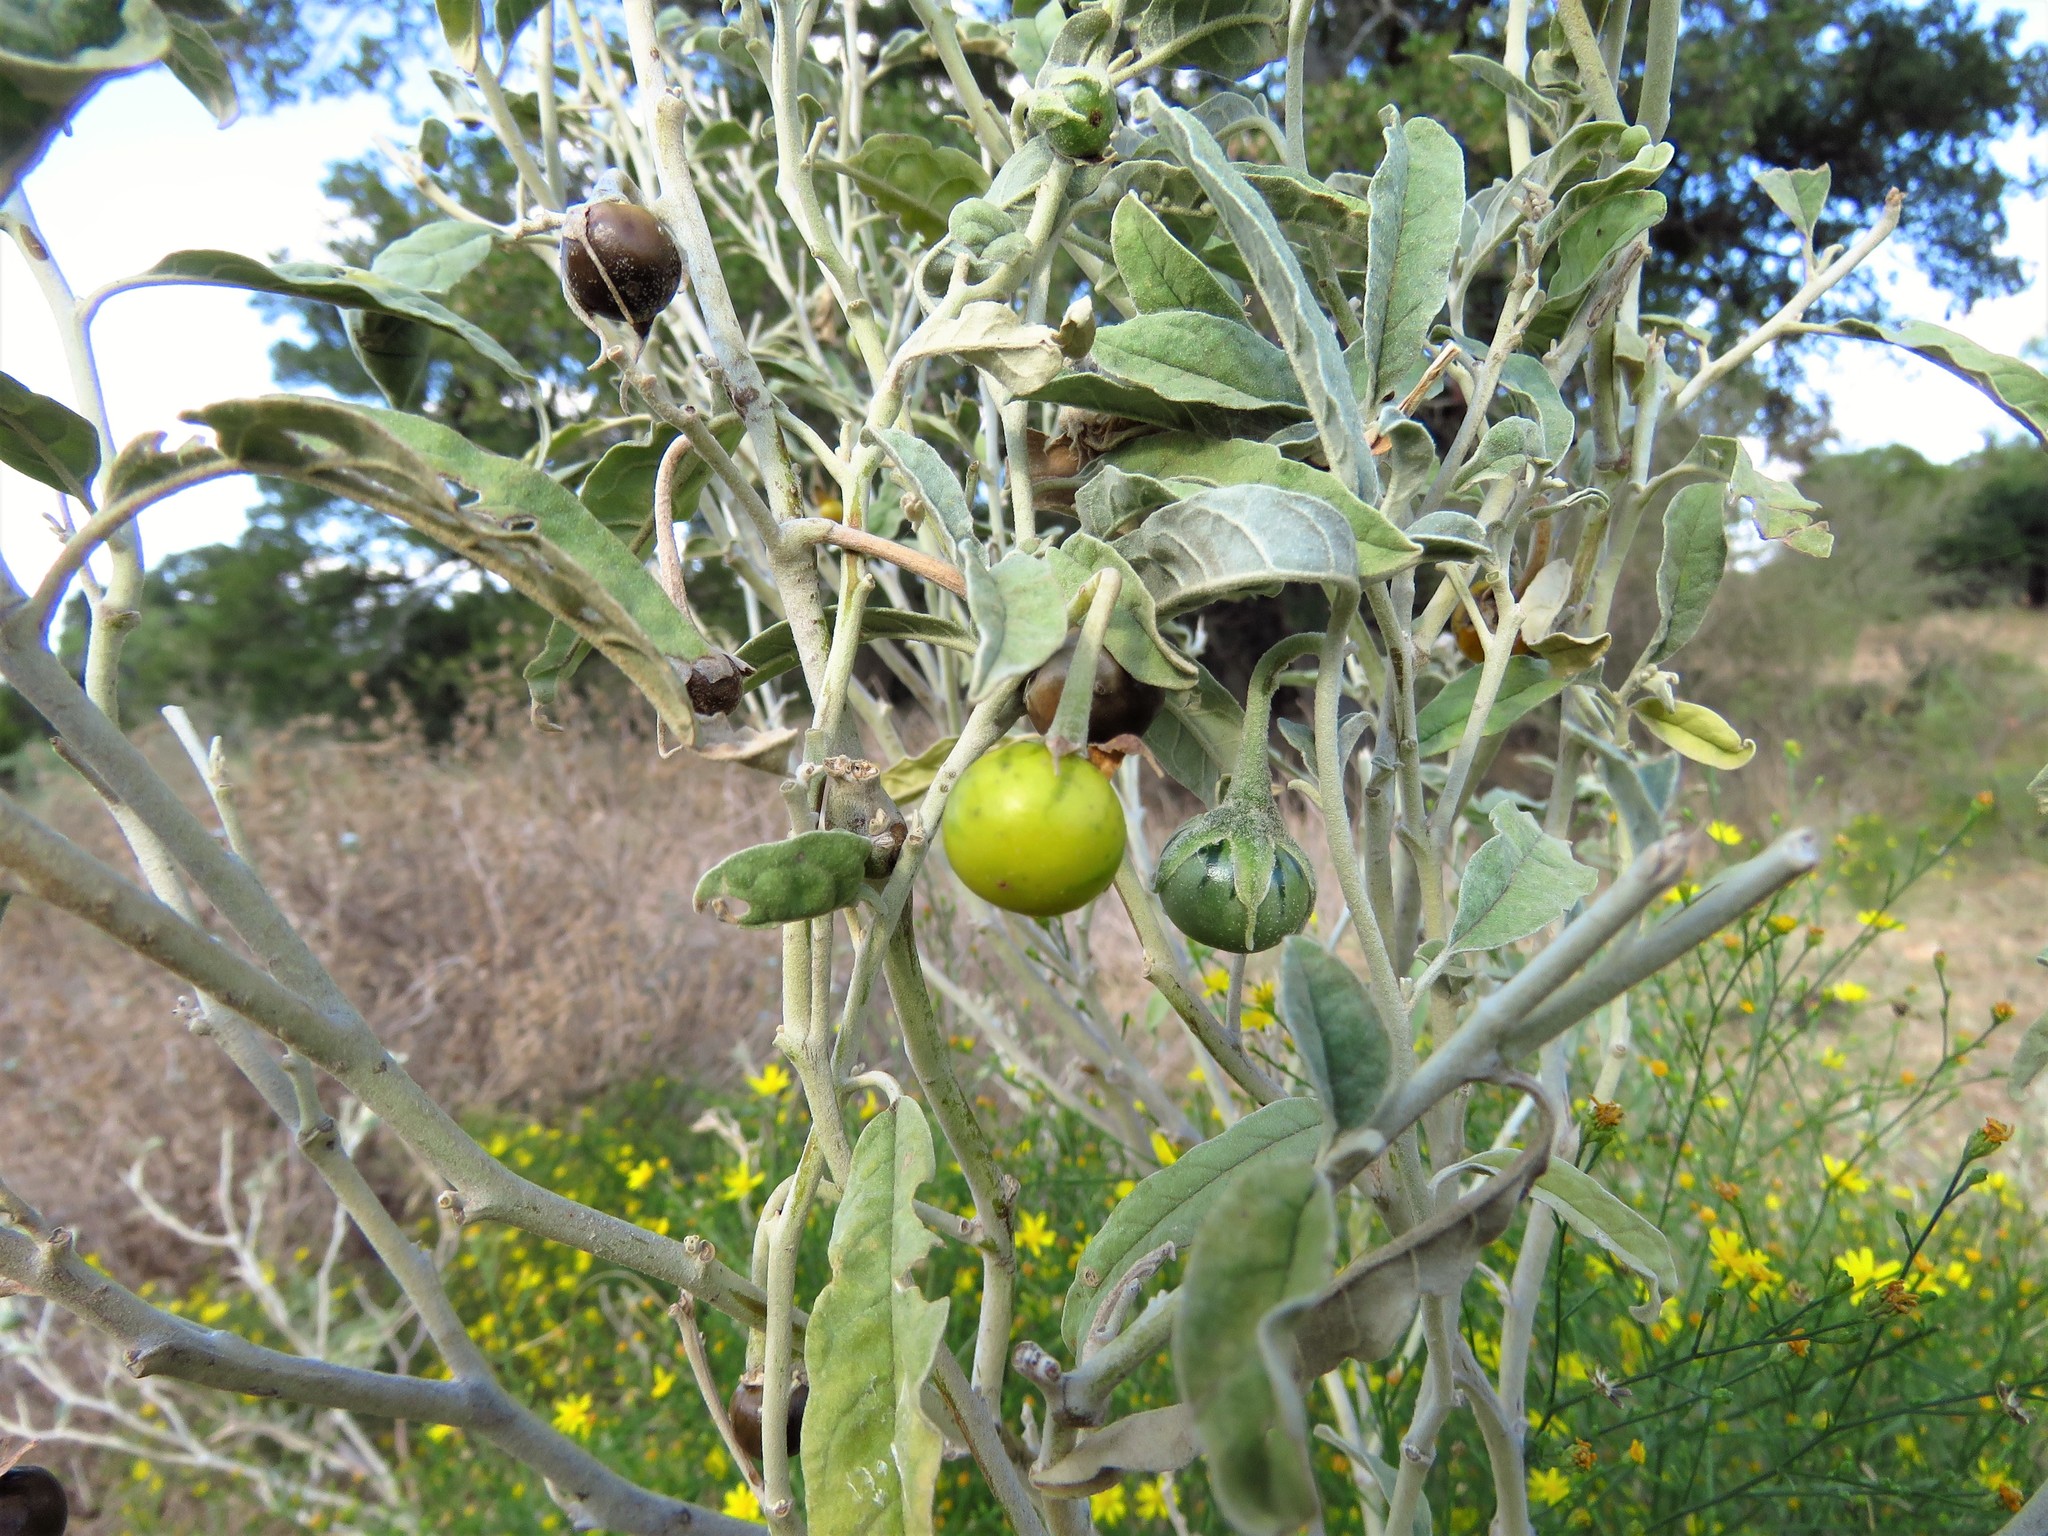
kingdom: Plantae
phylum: Tracheophyta
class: Magnoliopsida
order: Solanales
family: Solanaceae
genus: Solanum
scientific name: Solanum elaeagnifolium
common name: Silverleaf nightshade
